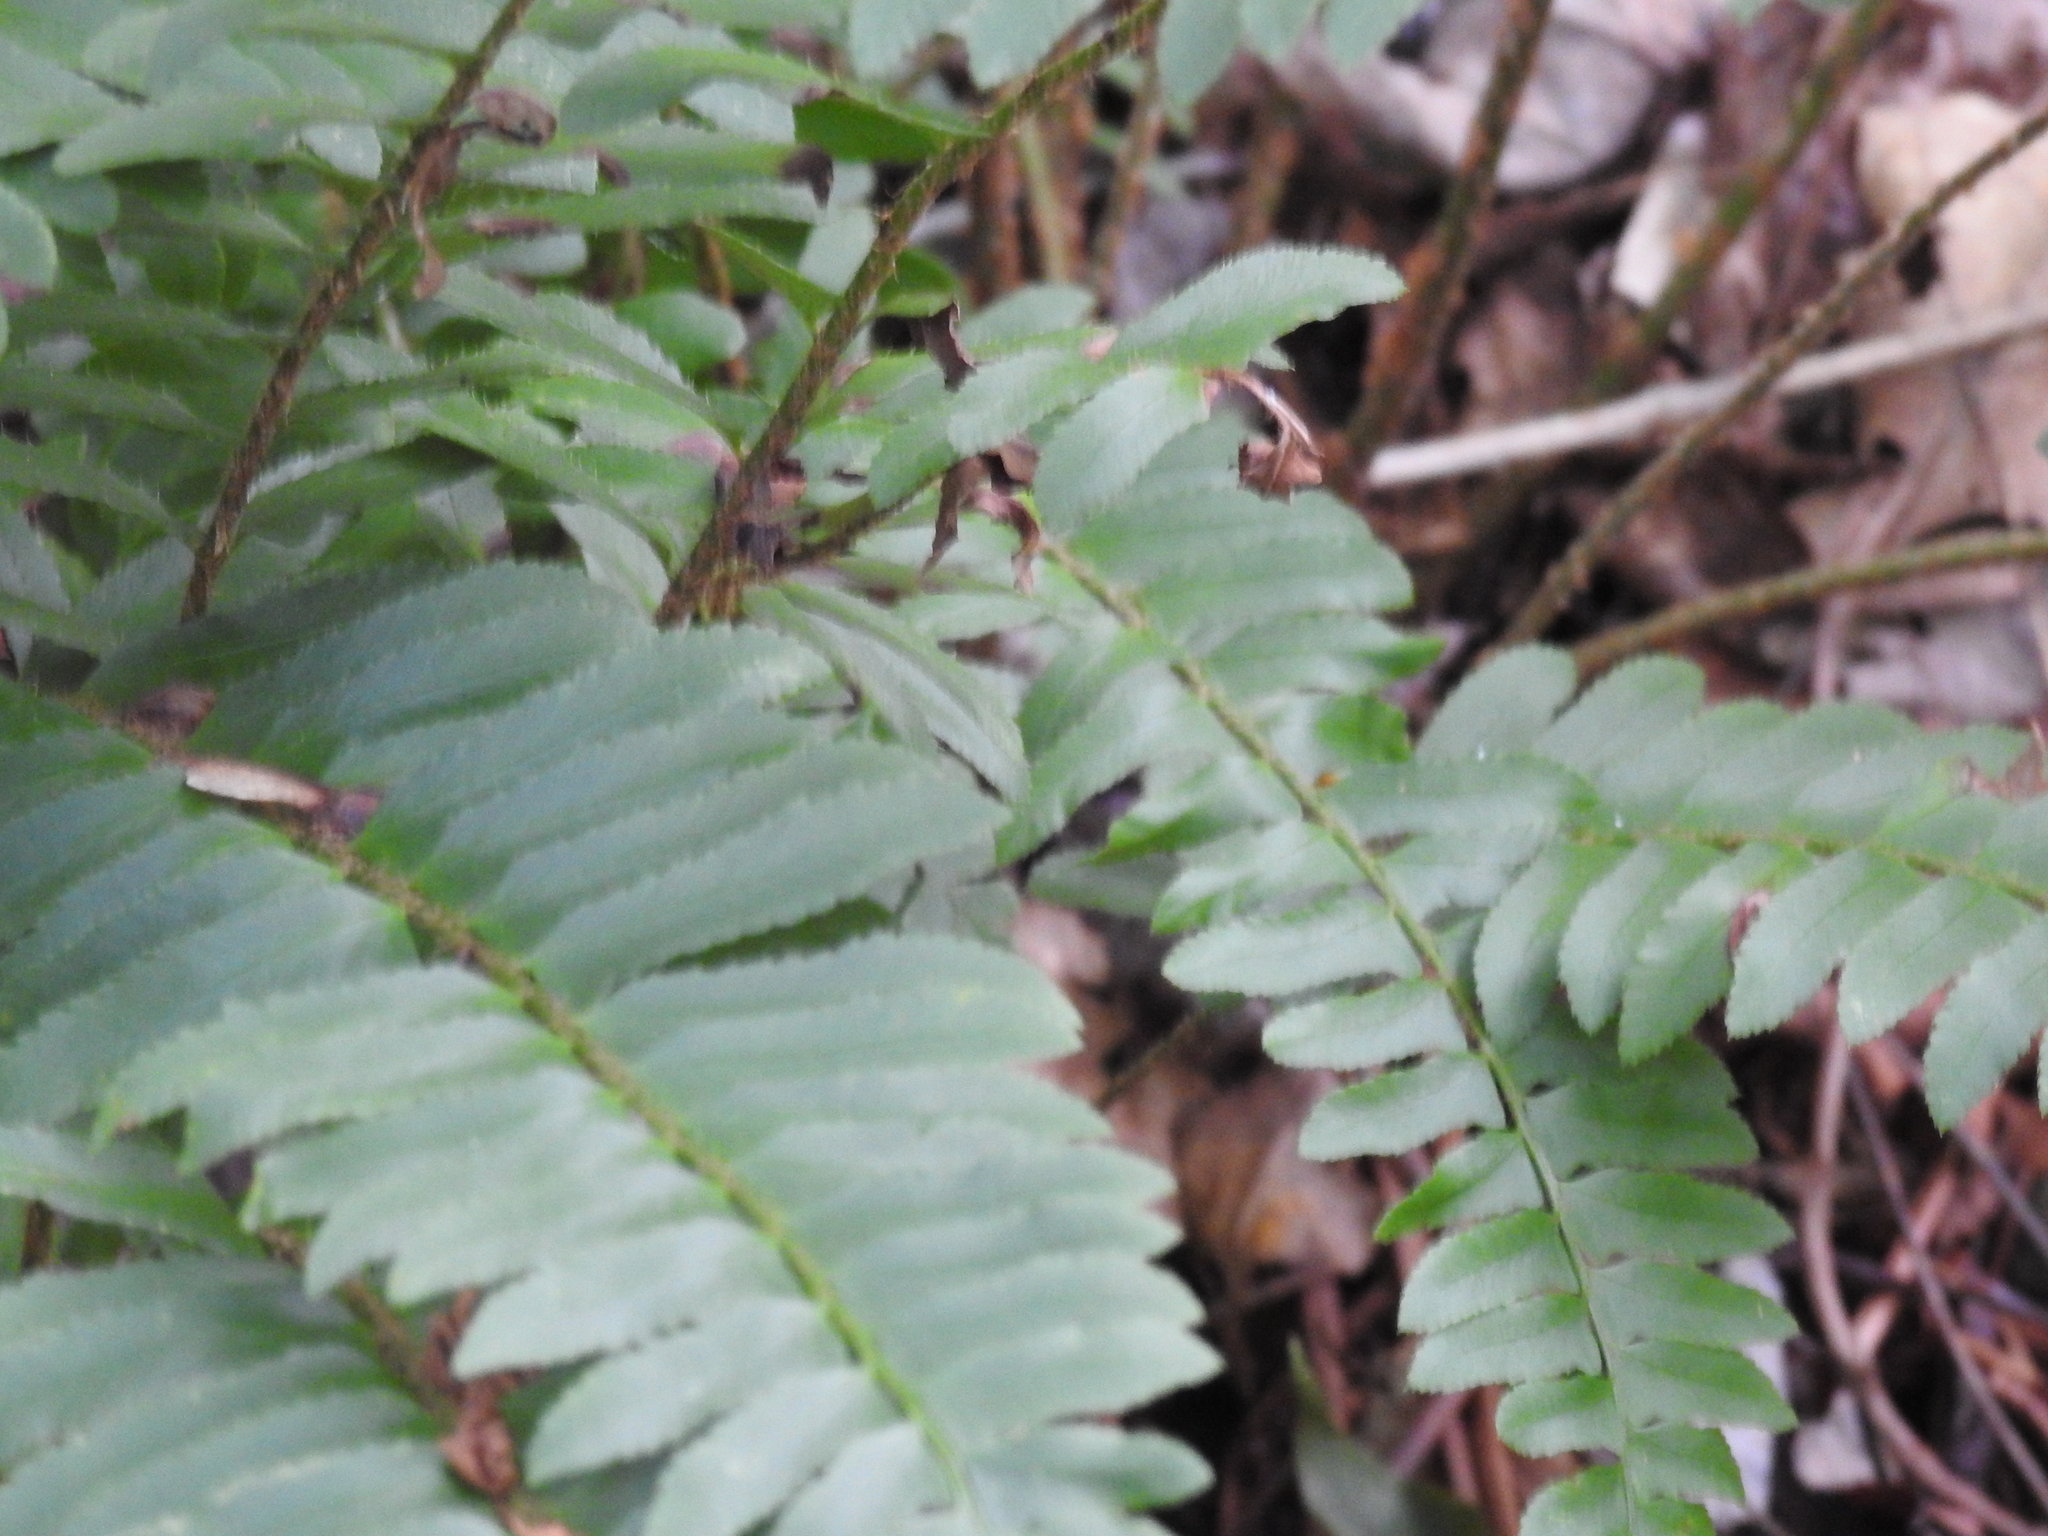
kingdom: Plantae
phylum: Tracheophyta
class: Polypodiopsida
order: Polypodiales
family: Dryopteridaceae
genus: Polystichum
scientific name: Polystichum acrostichoides
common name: Christmas fern
